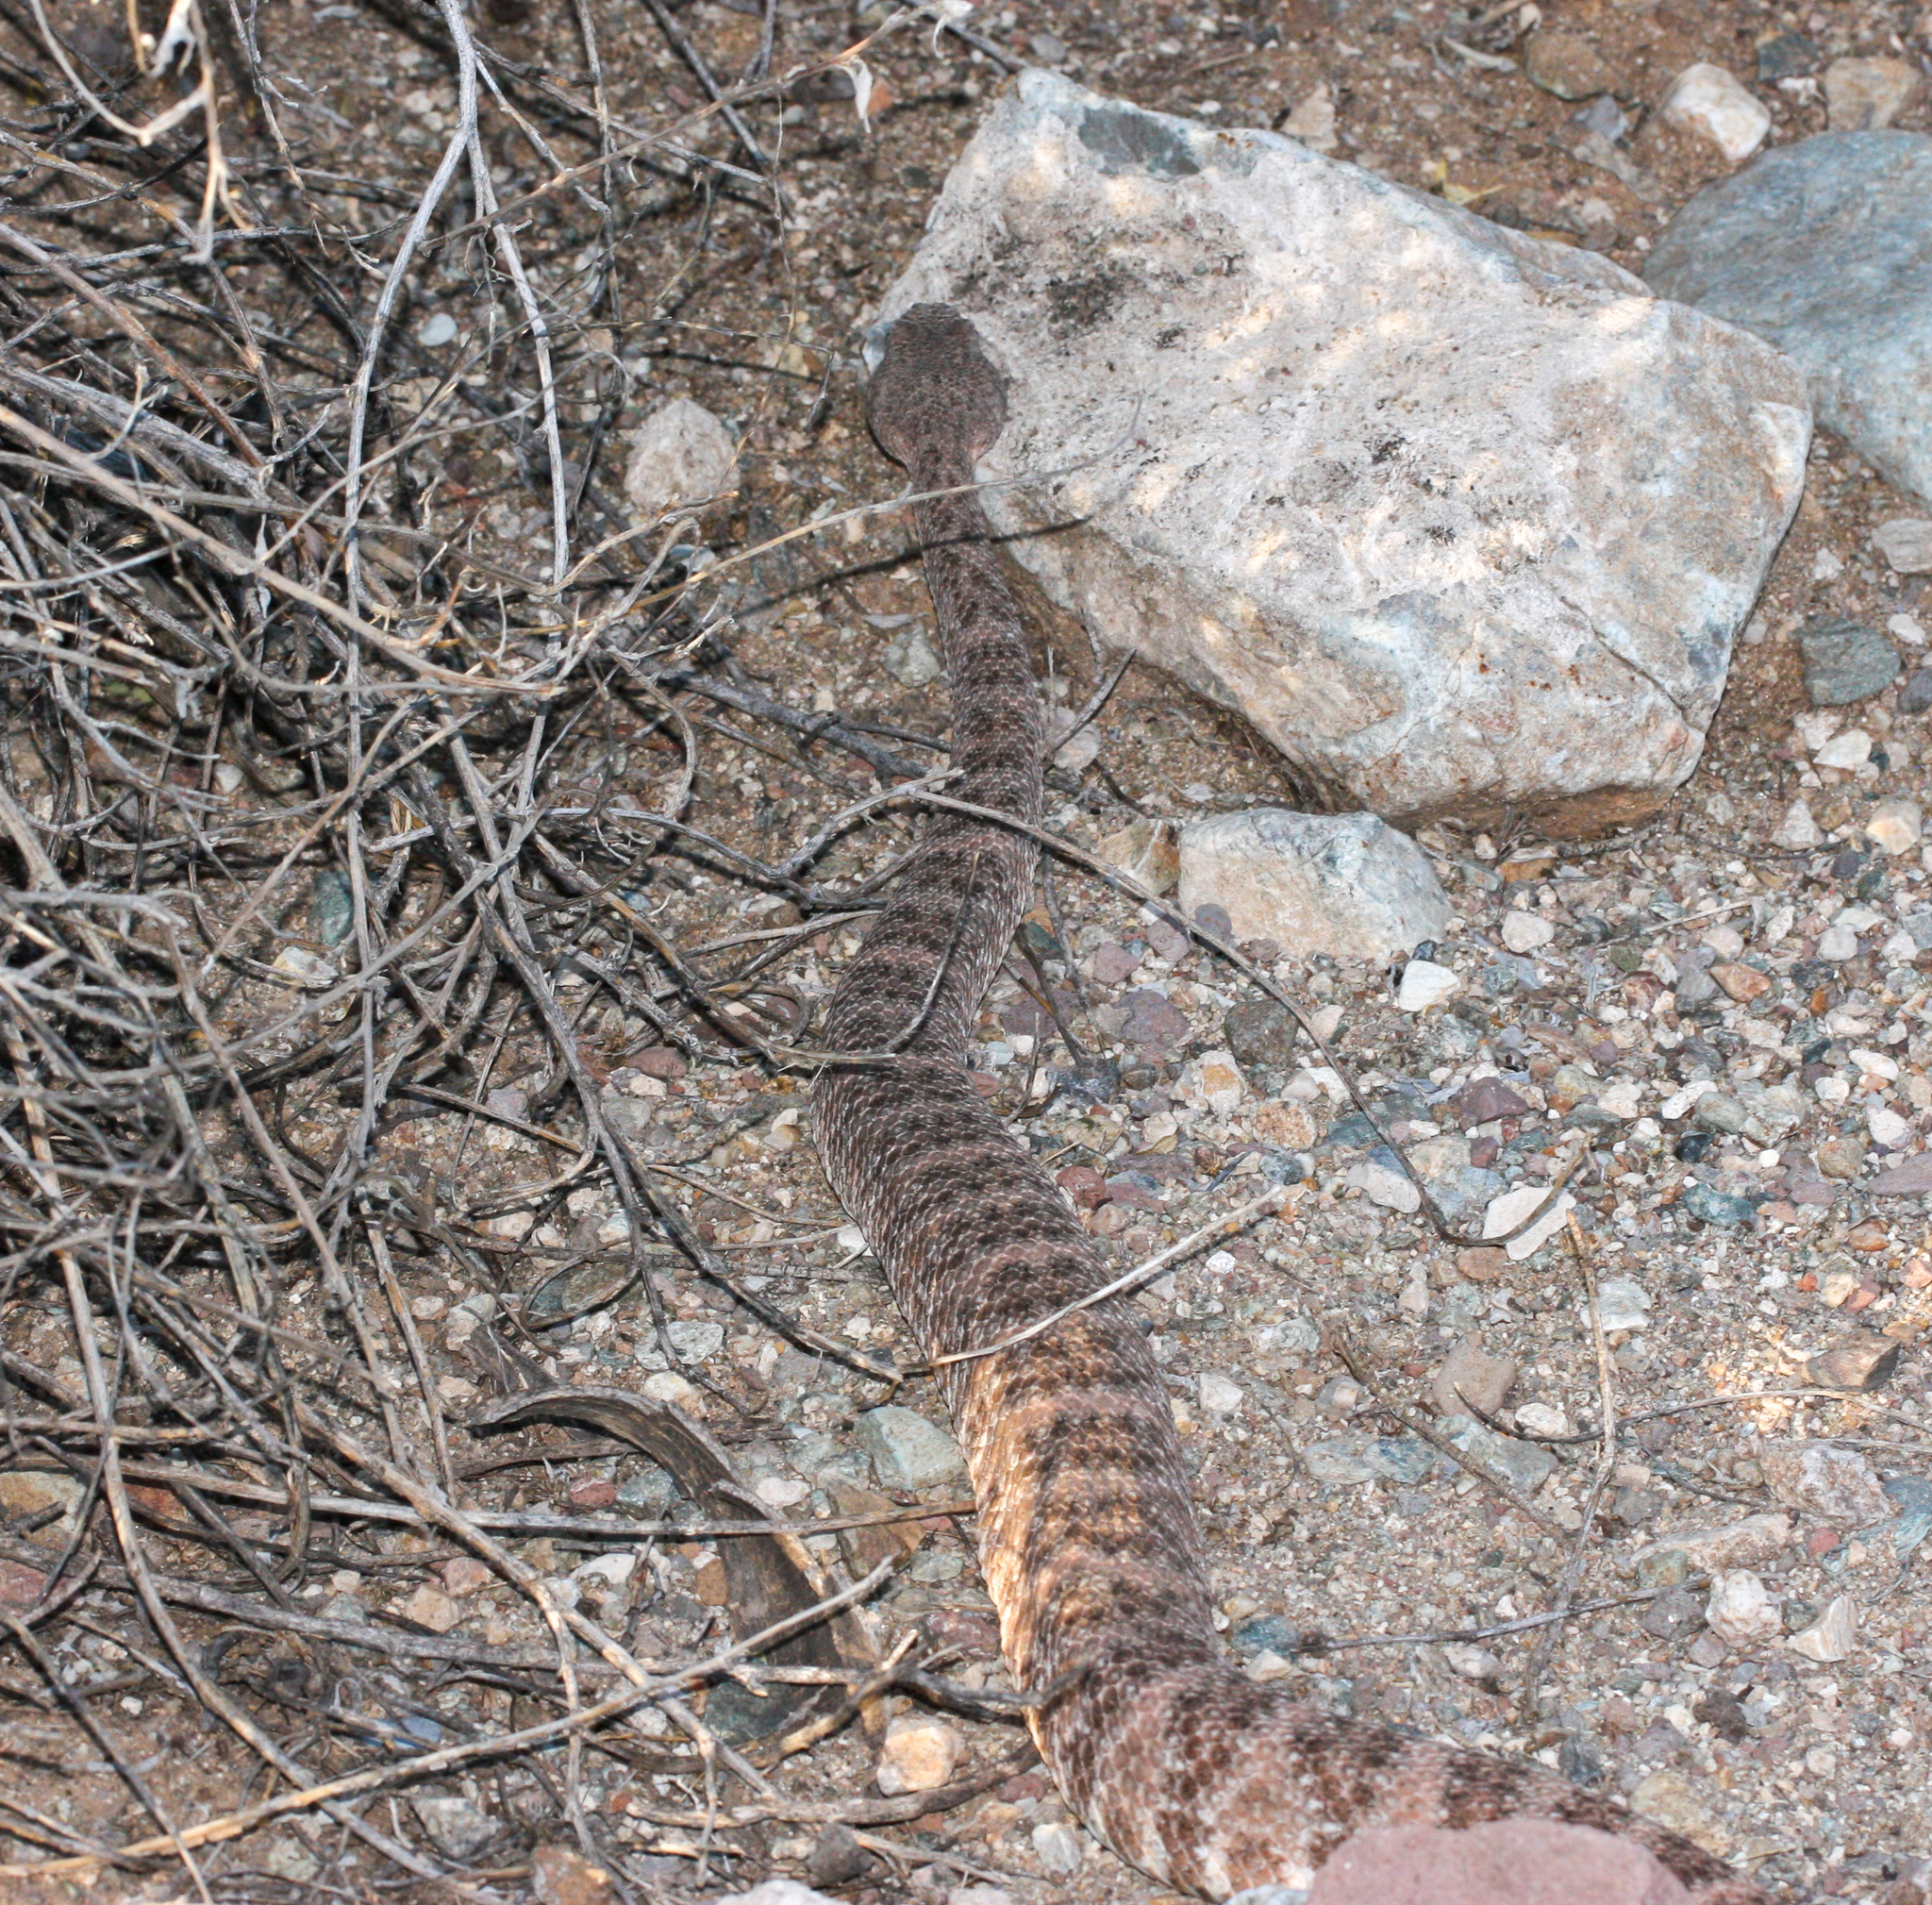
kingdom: Animalia
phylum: Chordata
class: Squamata
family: Viperidae
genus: Crotalus
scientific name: Crotalus pyrrhus
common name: Southwestern speckled rattlesnake
